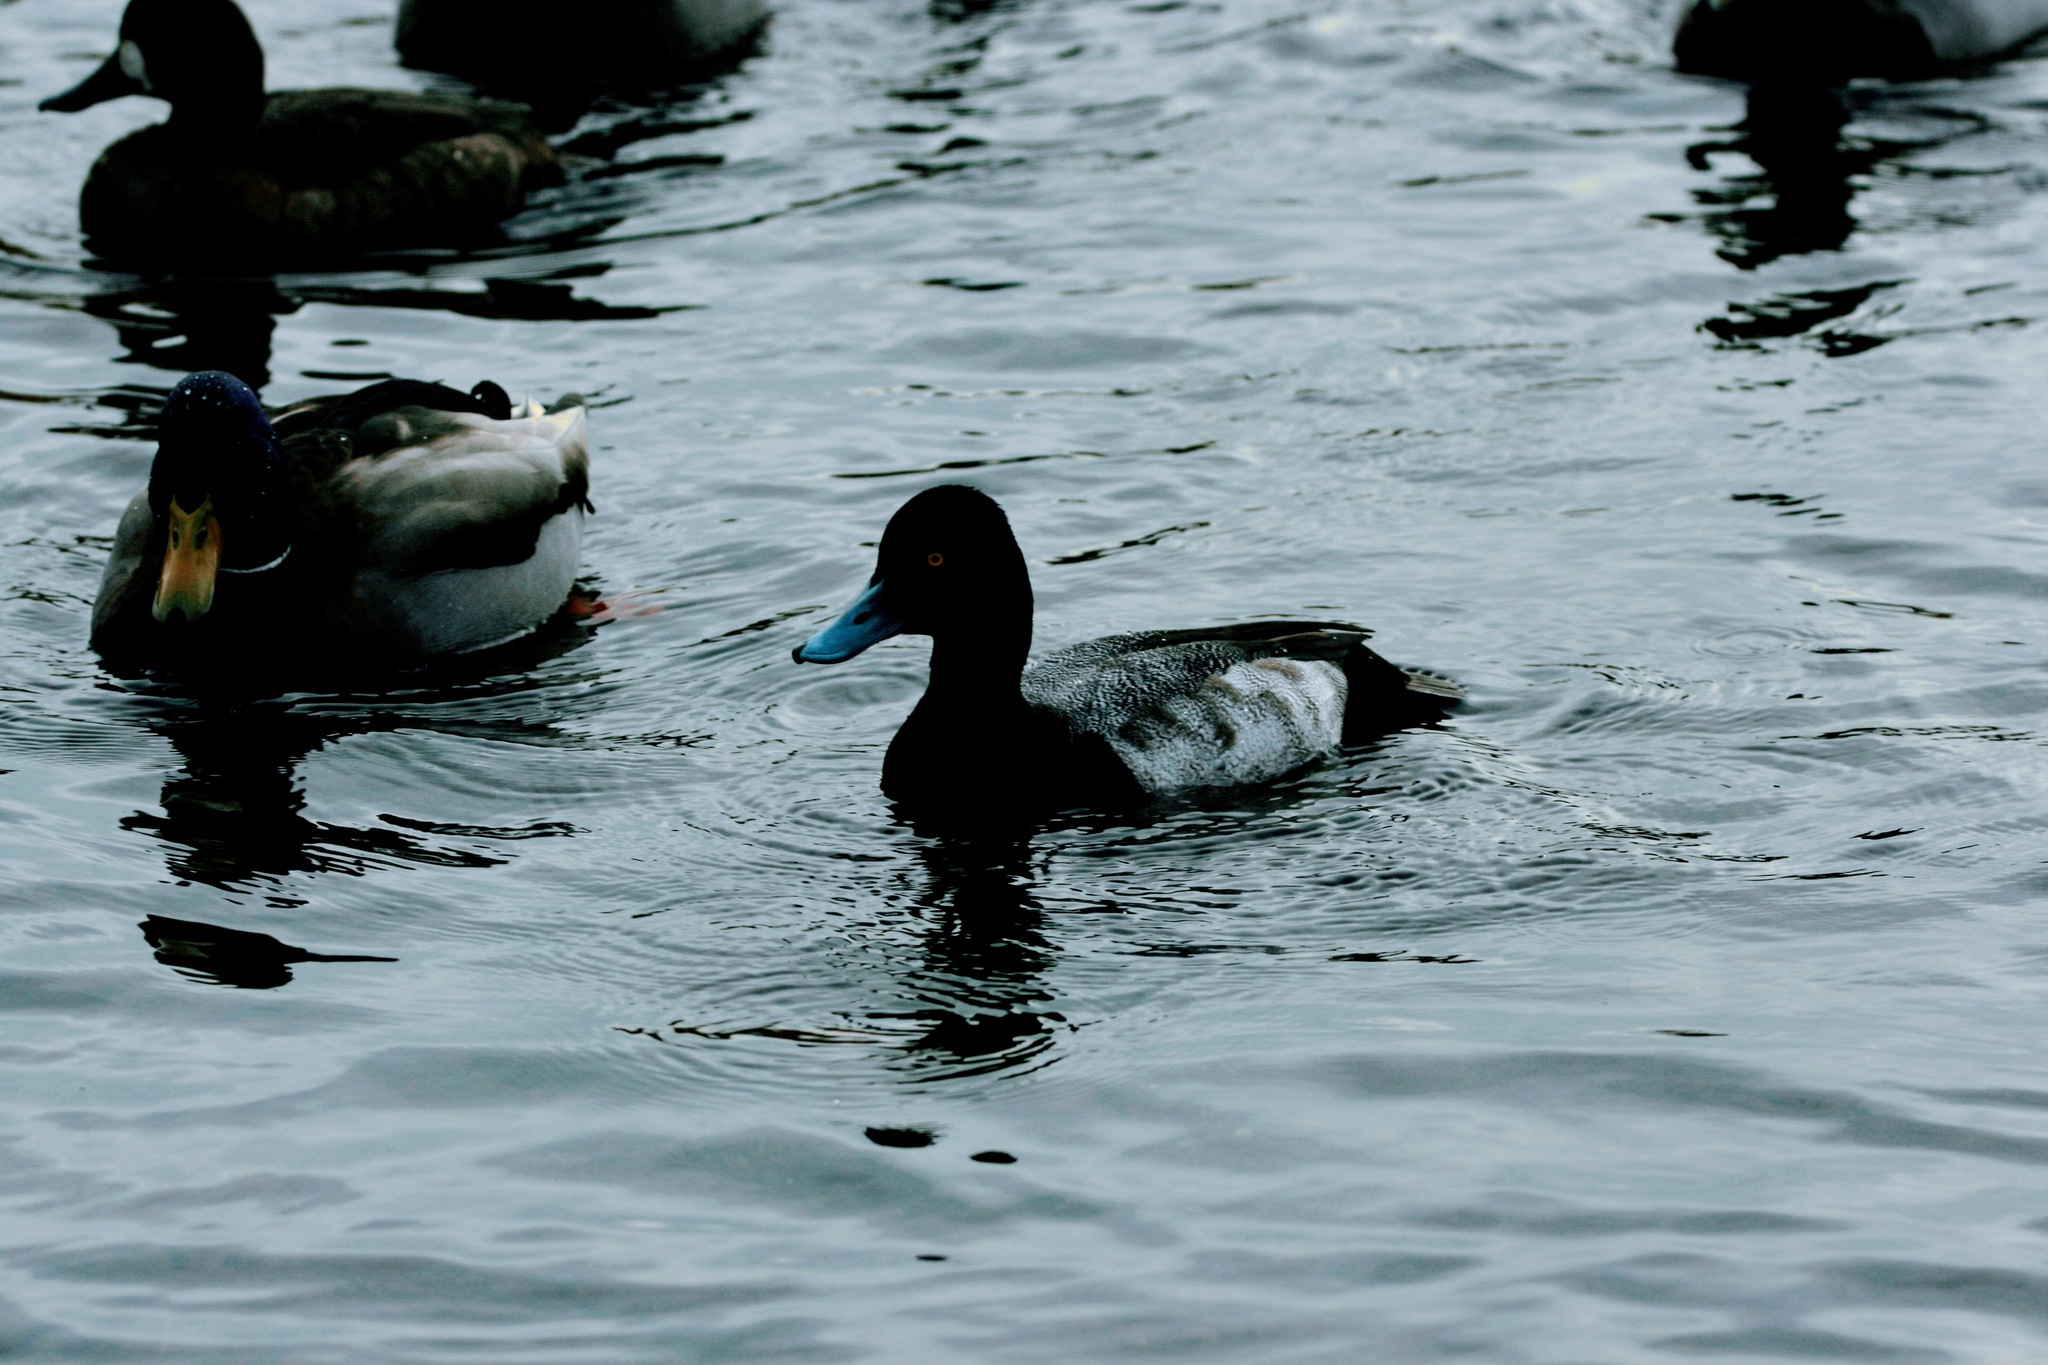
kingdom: Animalia
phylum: Chordata
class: Aves
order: Anseriformes
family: Anatidae
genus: Aythya
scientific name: Aythya affinis
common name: Lesser scaup
